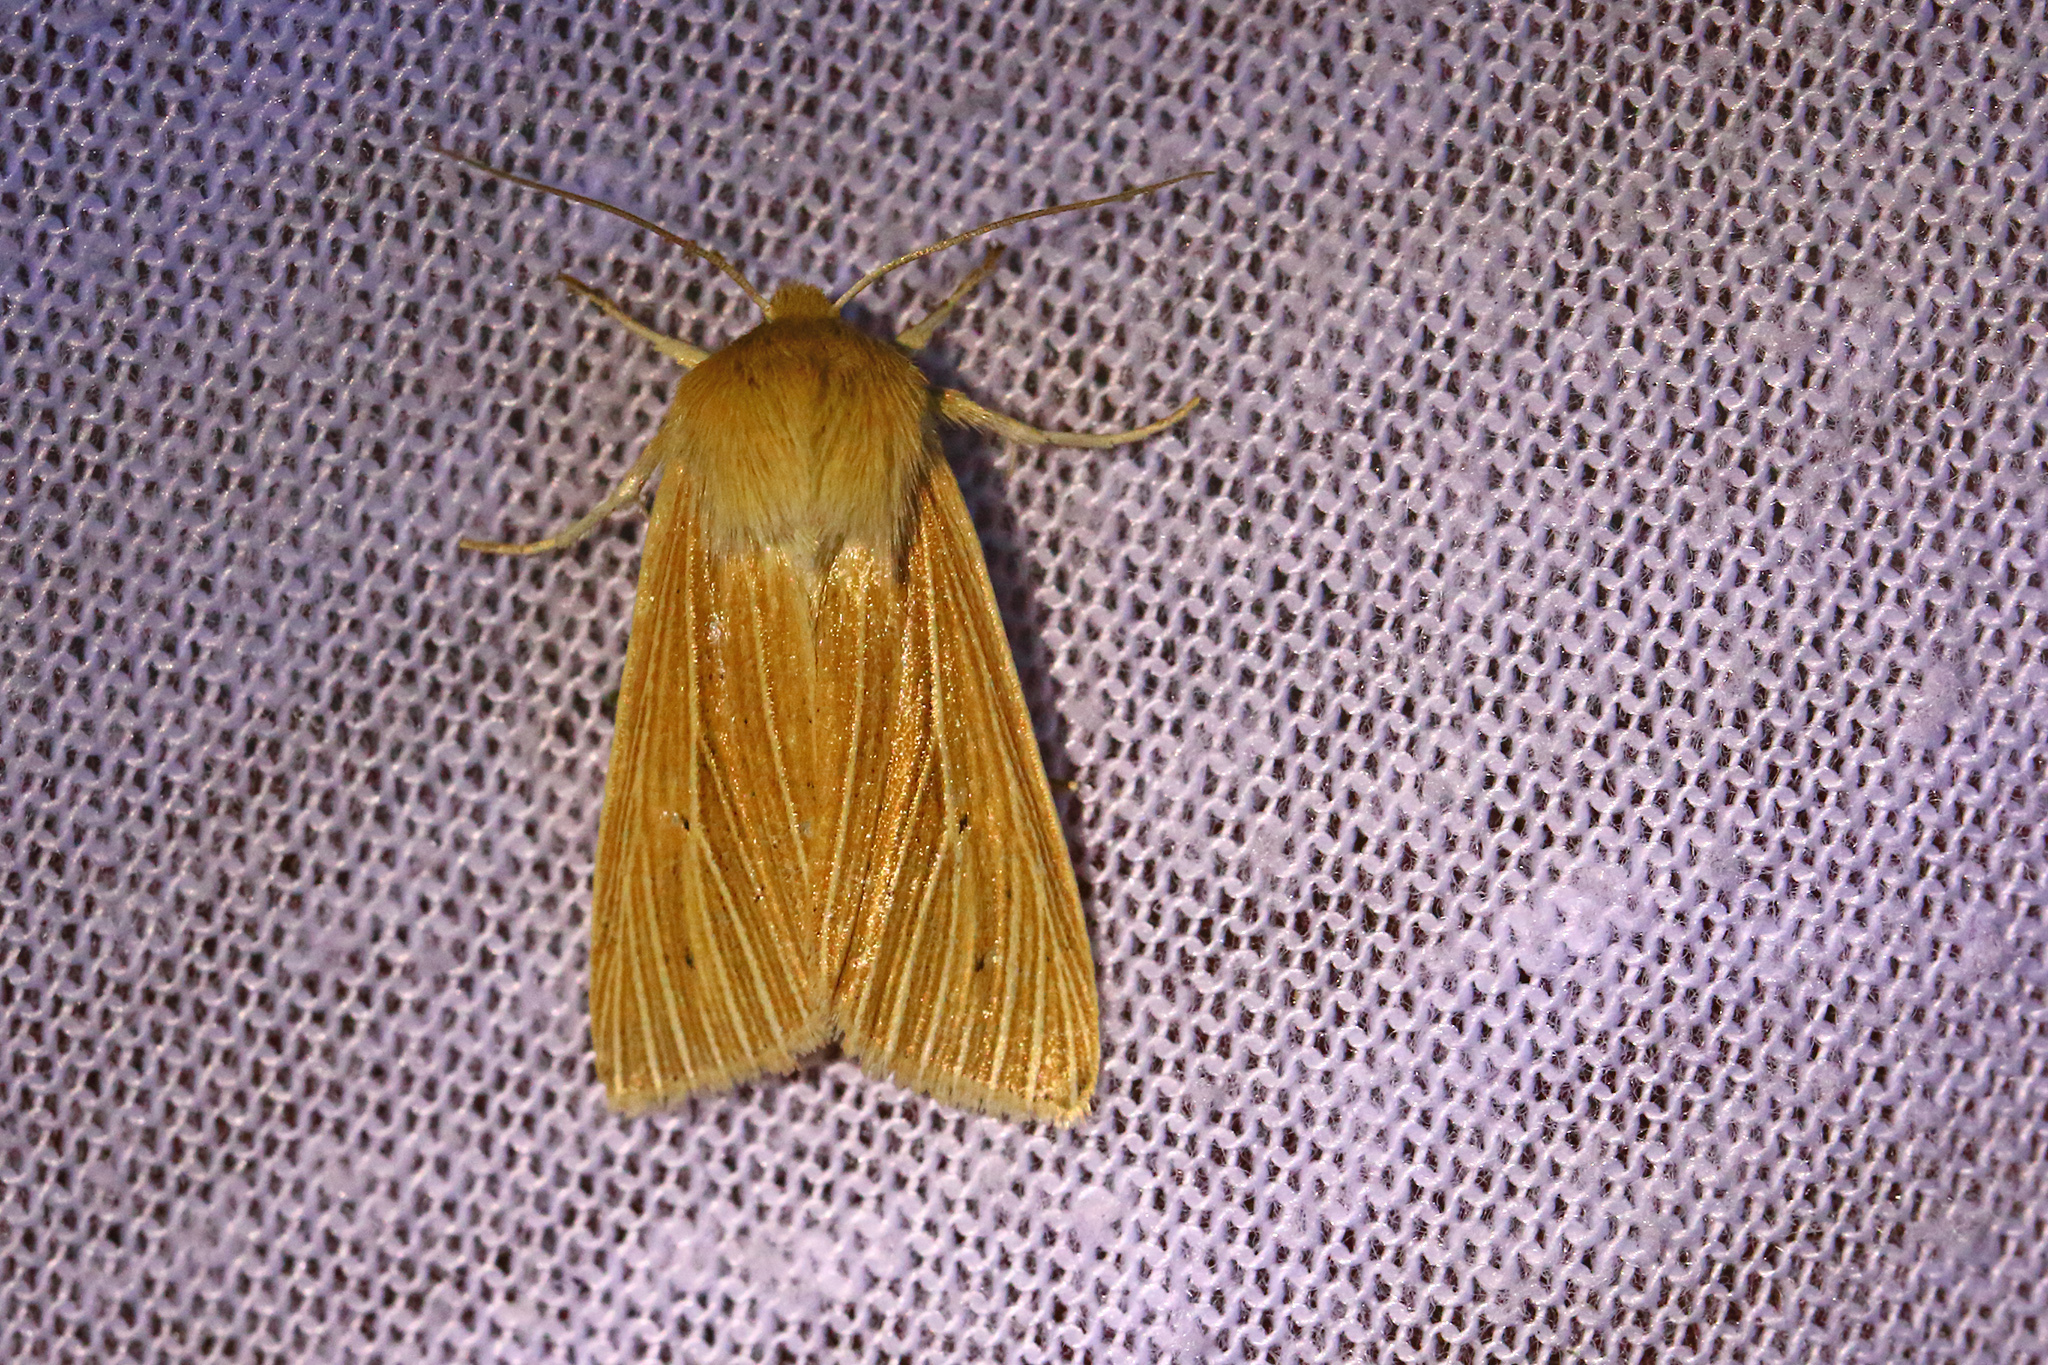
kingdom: Animalia
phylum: Arthropoda
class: Insecta
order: Lepidoptera
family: Noctuidae
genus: Mythimna
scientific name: Mythimna pallens
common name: Common wainscot
